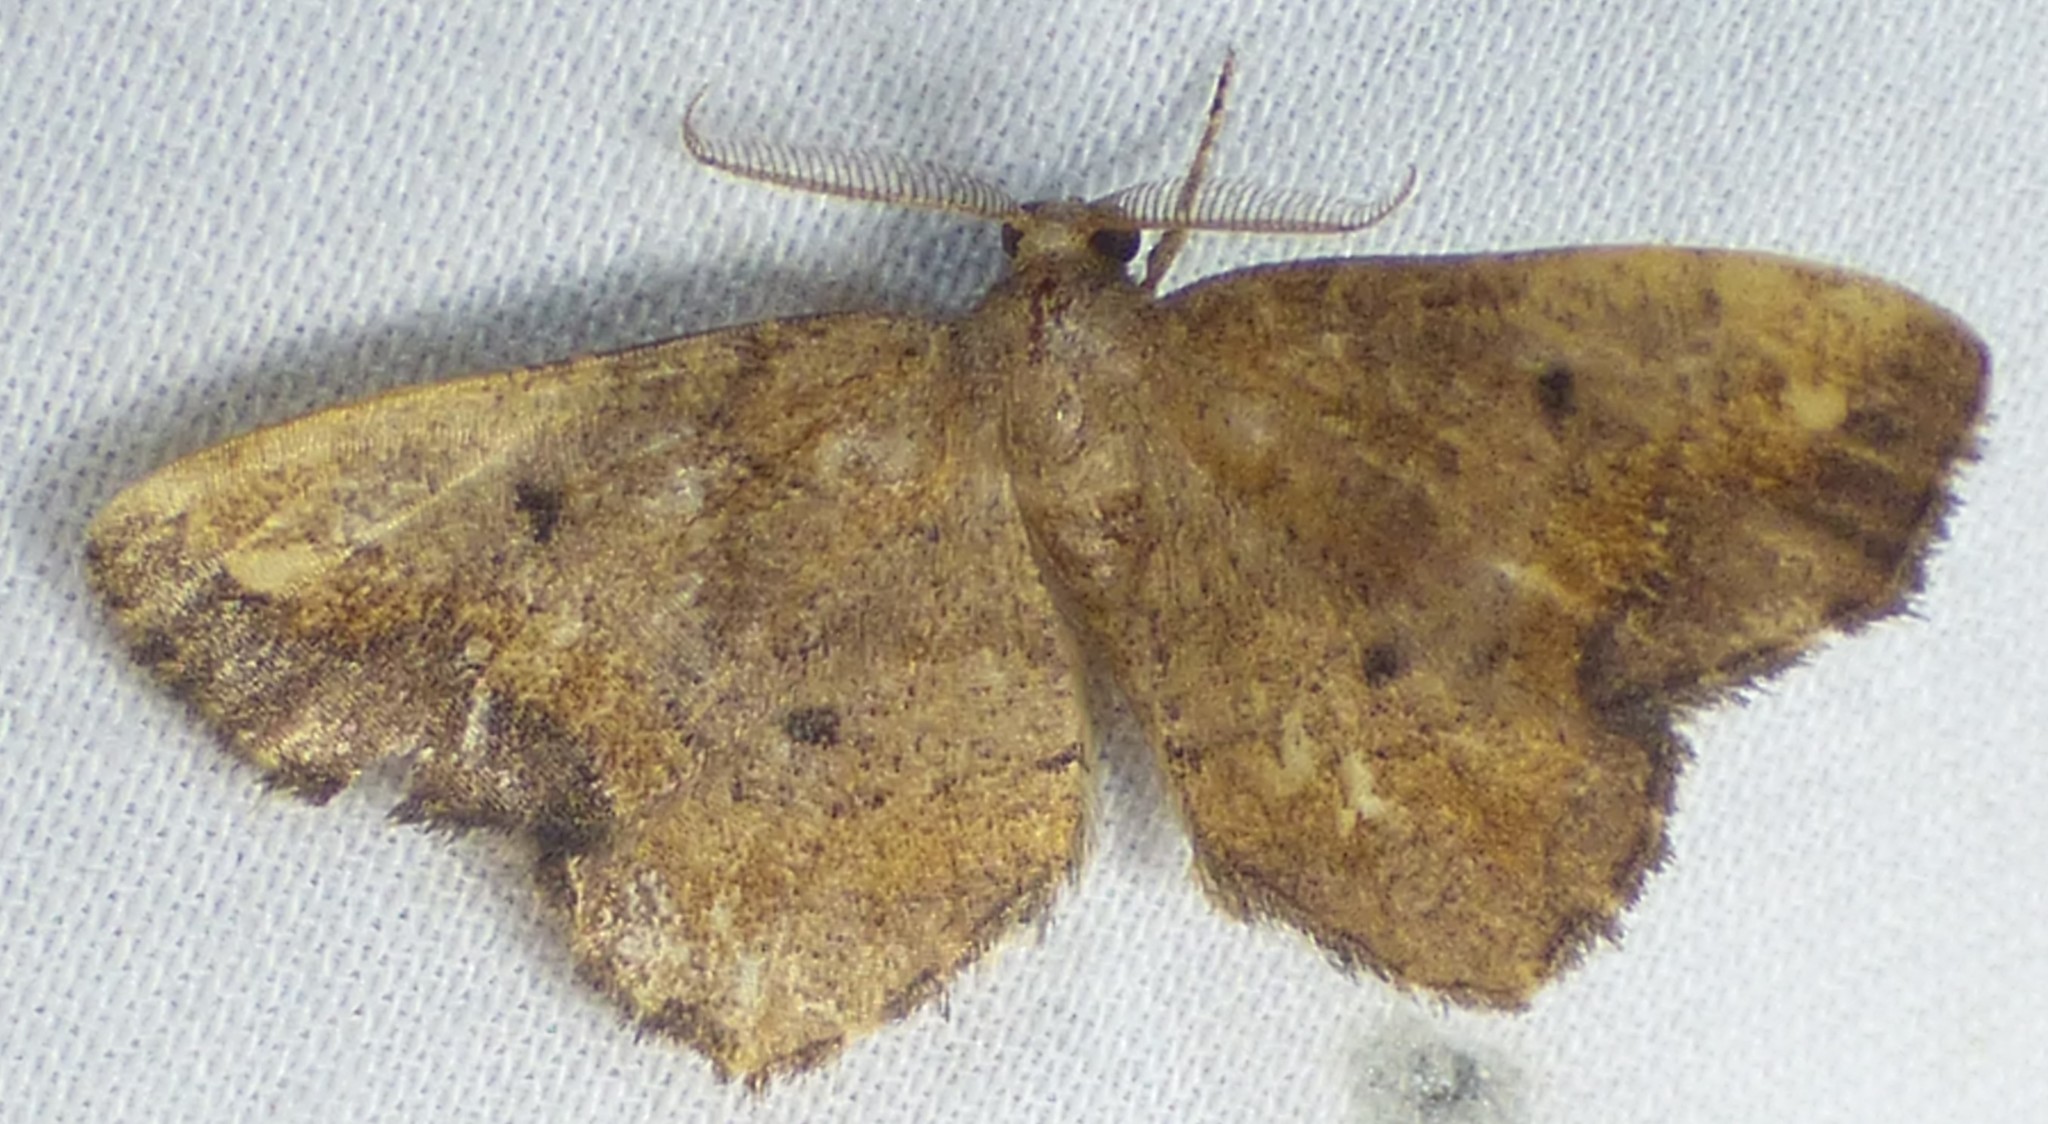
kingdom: Animalia
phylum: Arthropoda
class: Insecta
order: Lepidoptera
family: Geometridae
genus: Hypagyrtis
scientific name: Hypagyrtis unipunctata
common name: One-spotted variant
